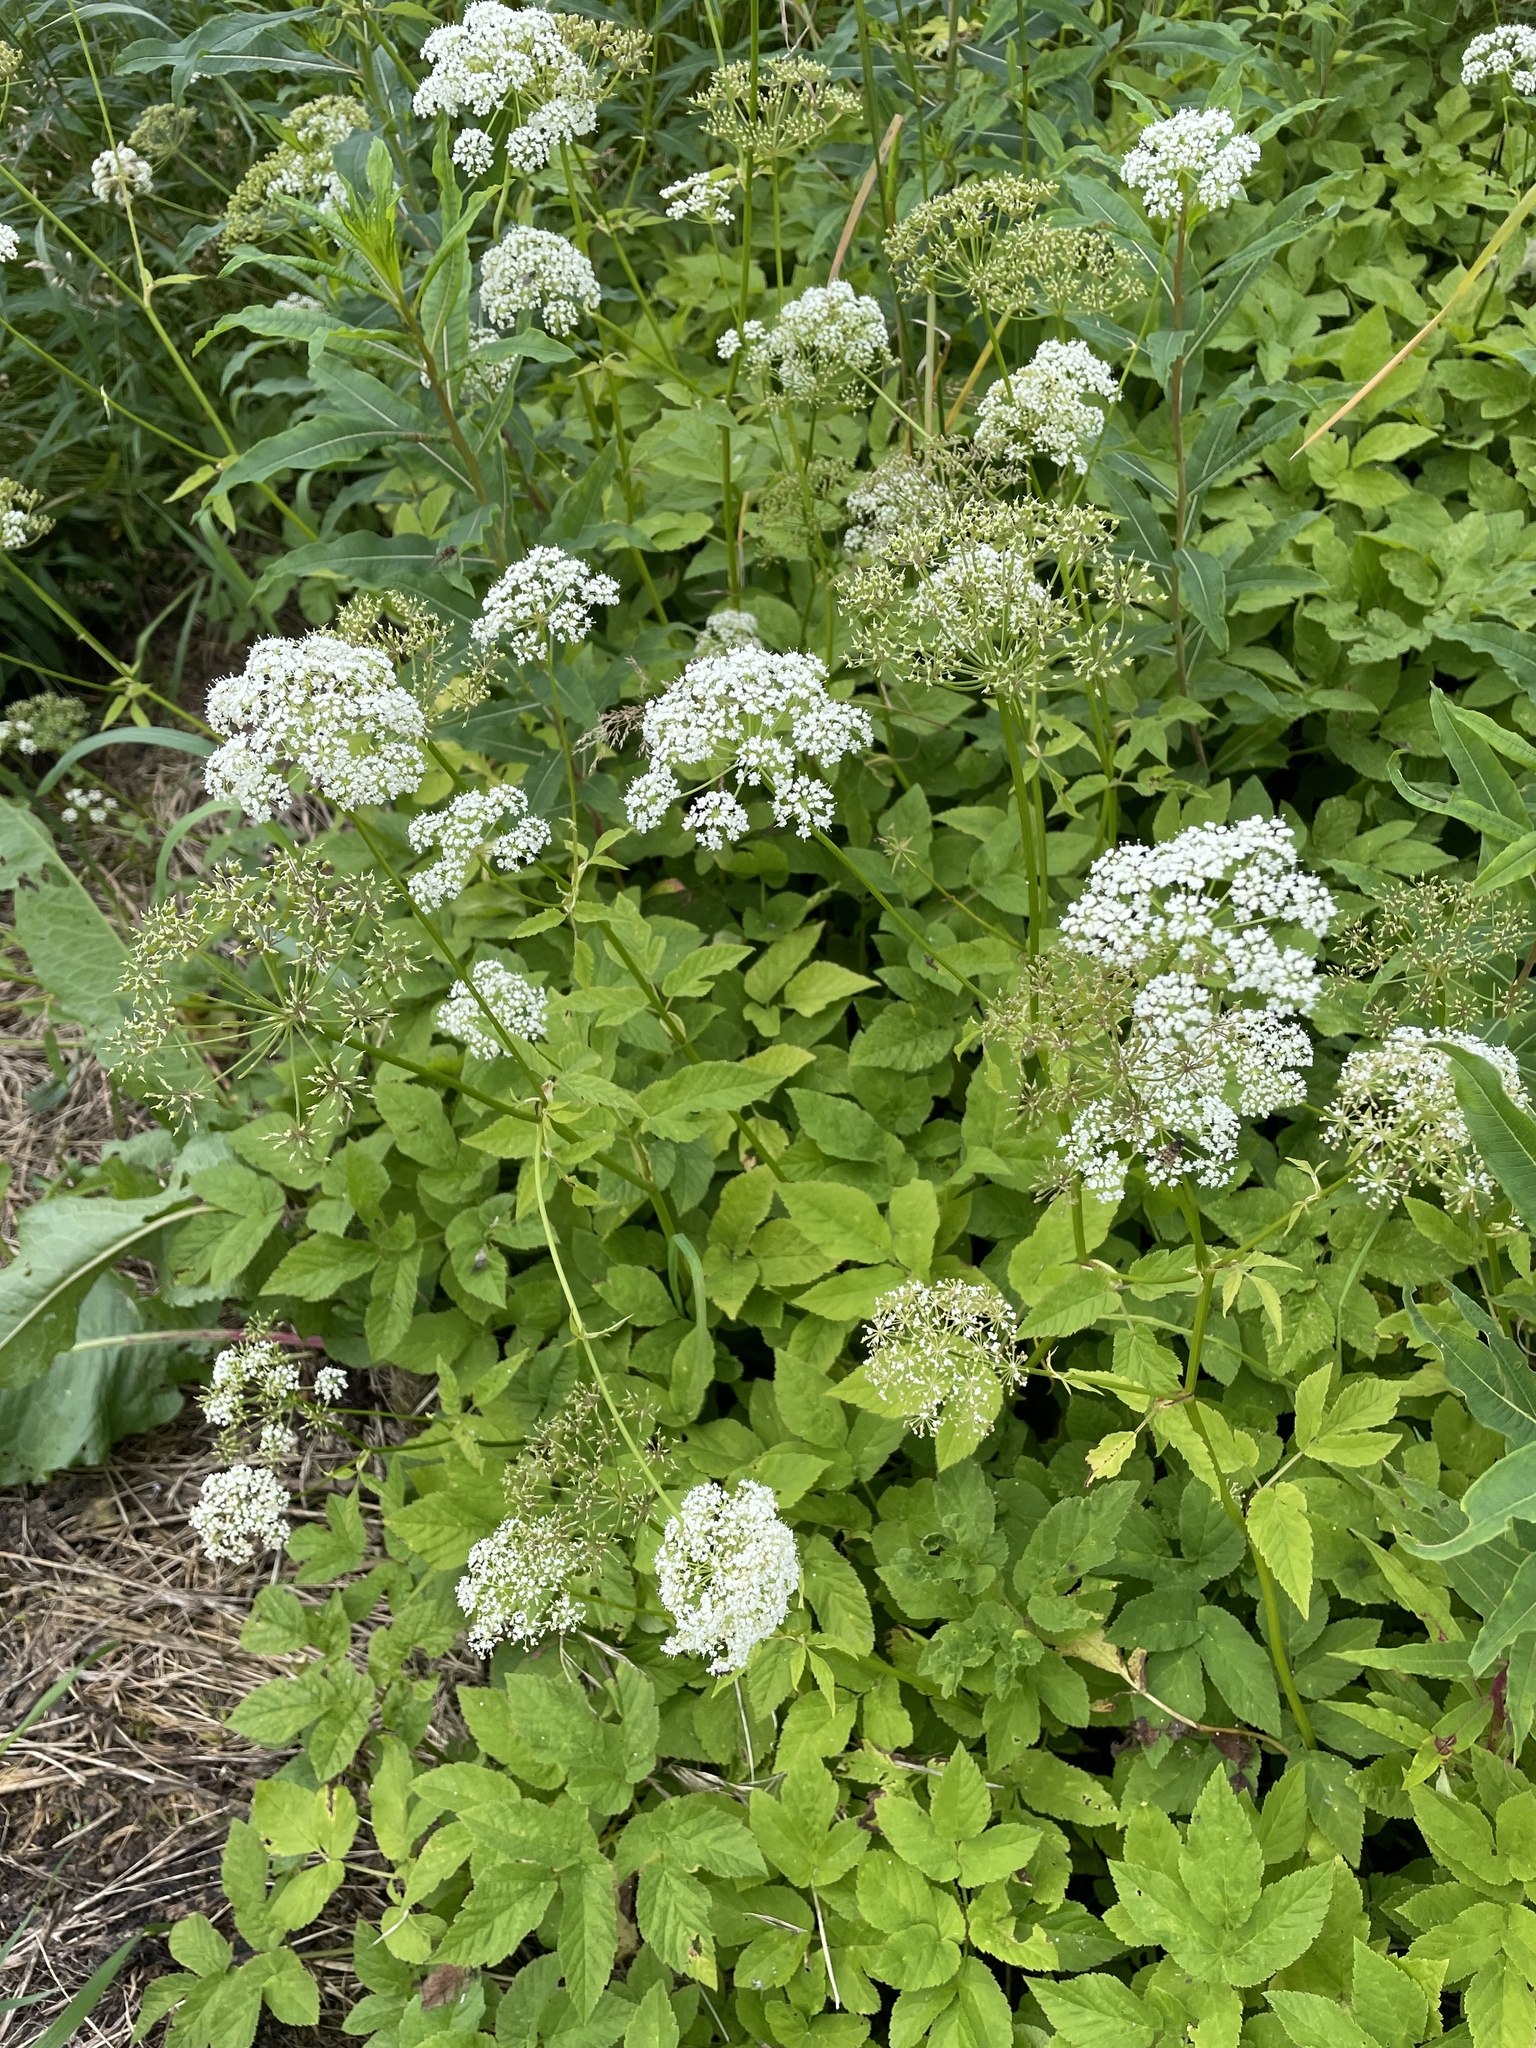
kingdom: Plantae
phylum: Tracheophyta
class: Magnoliopsida
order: Apiales
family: Apiaceae
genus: Aegopodium
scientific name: Aegopodium podagraria
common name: Ground-elder
